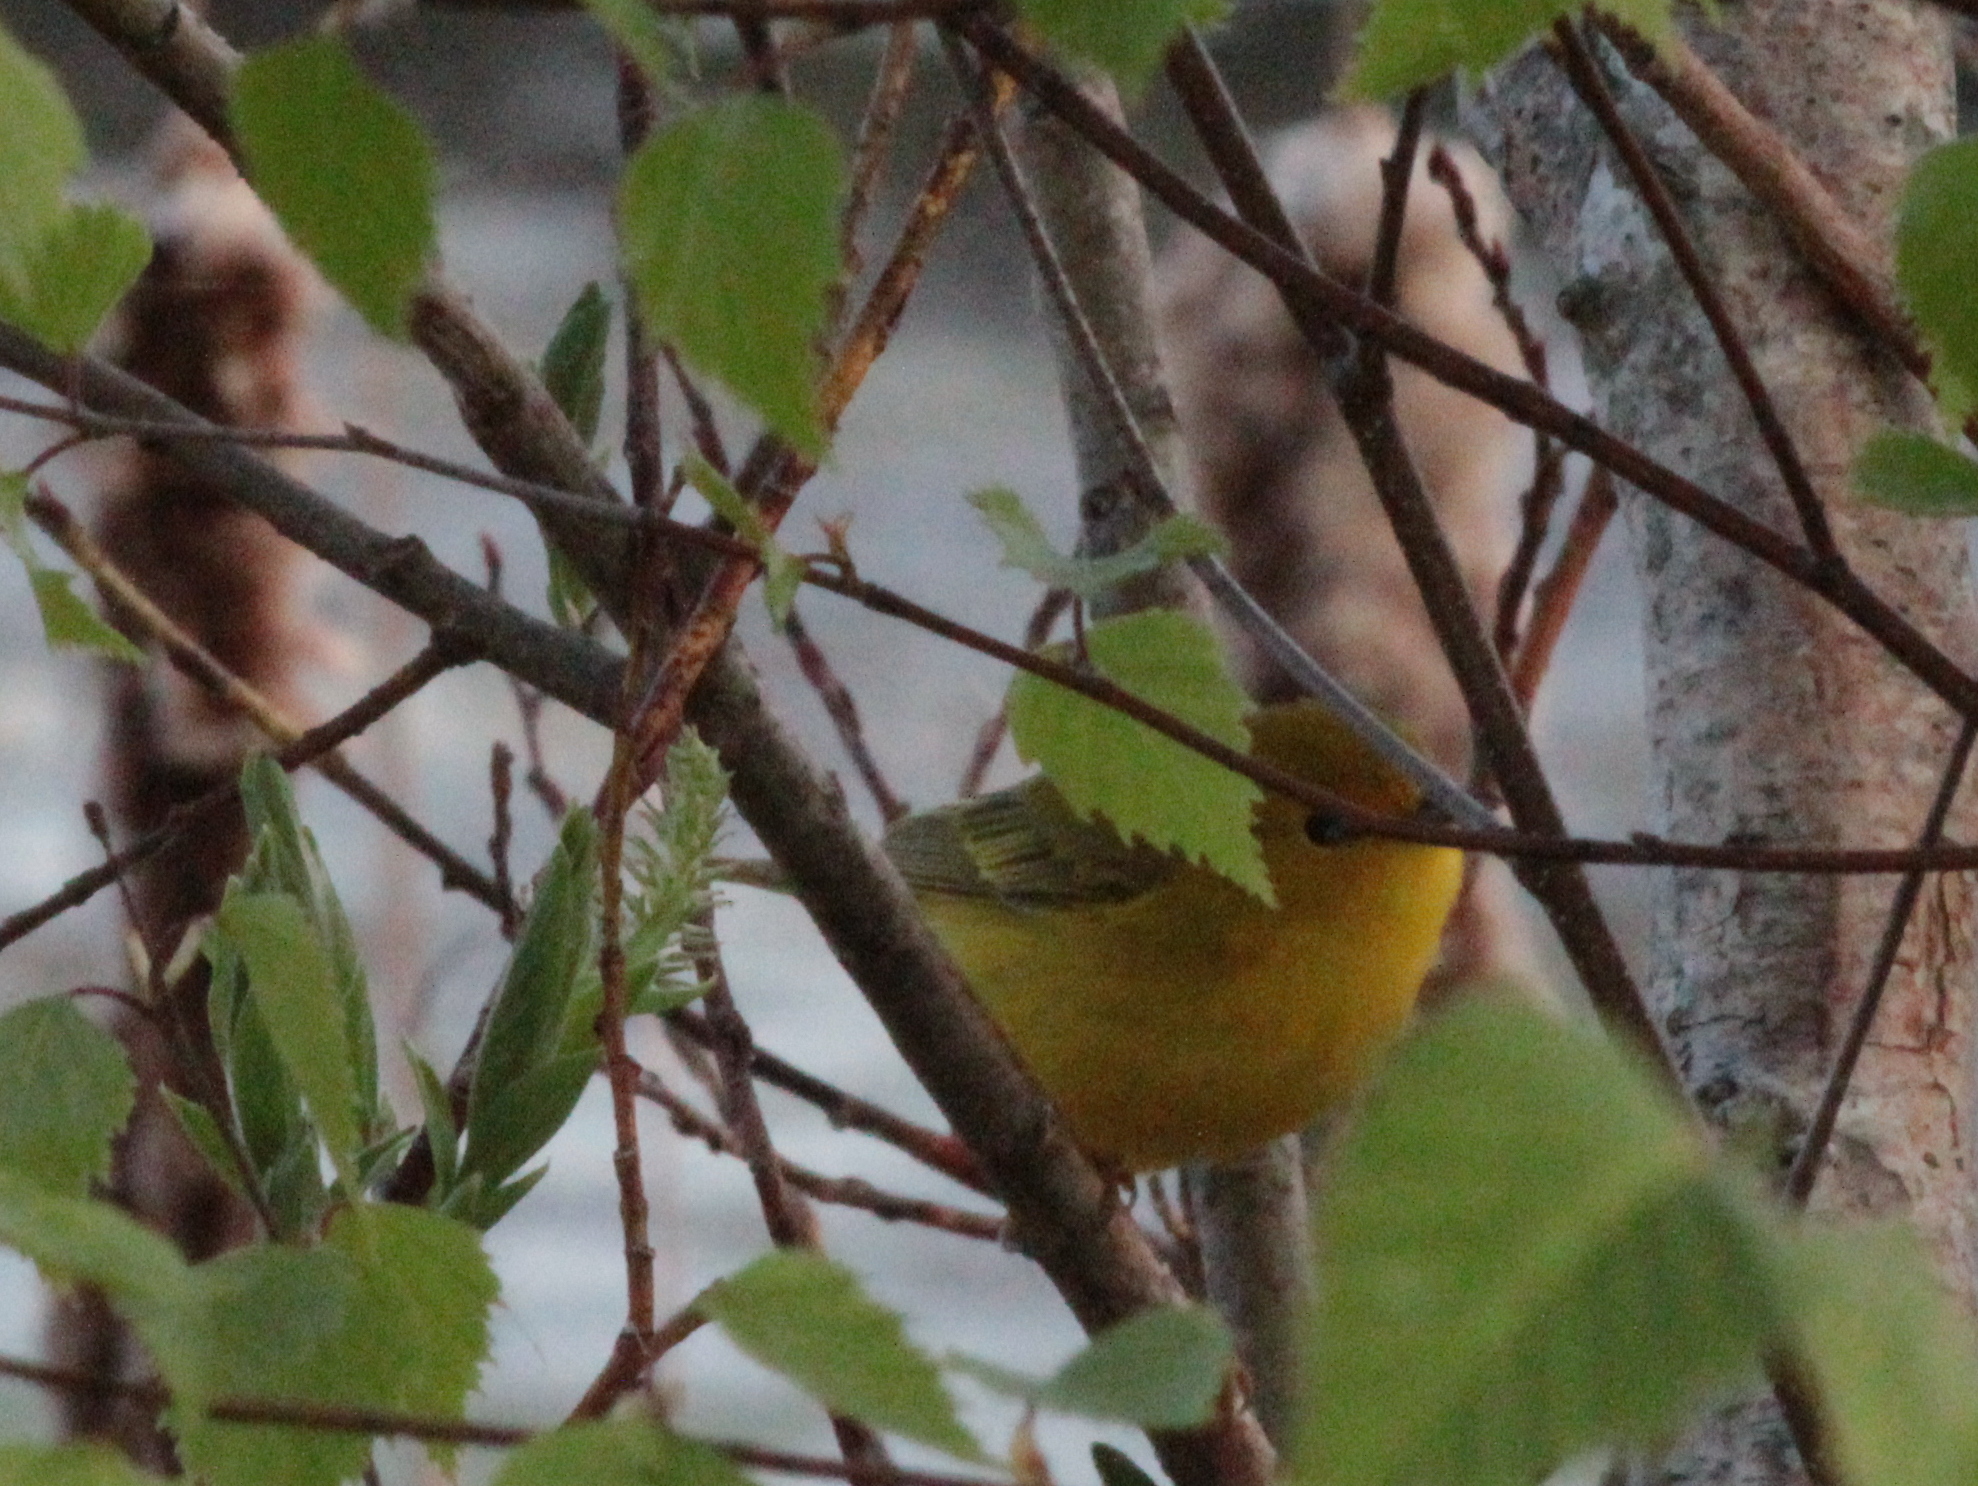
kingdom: Animalia
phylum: Chordata
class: Aves
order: Passeriformes
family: Parulidae
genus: Setophaga
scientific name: Setophaga petechia
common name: Yellow warbler
